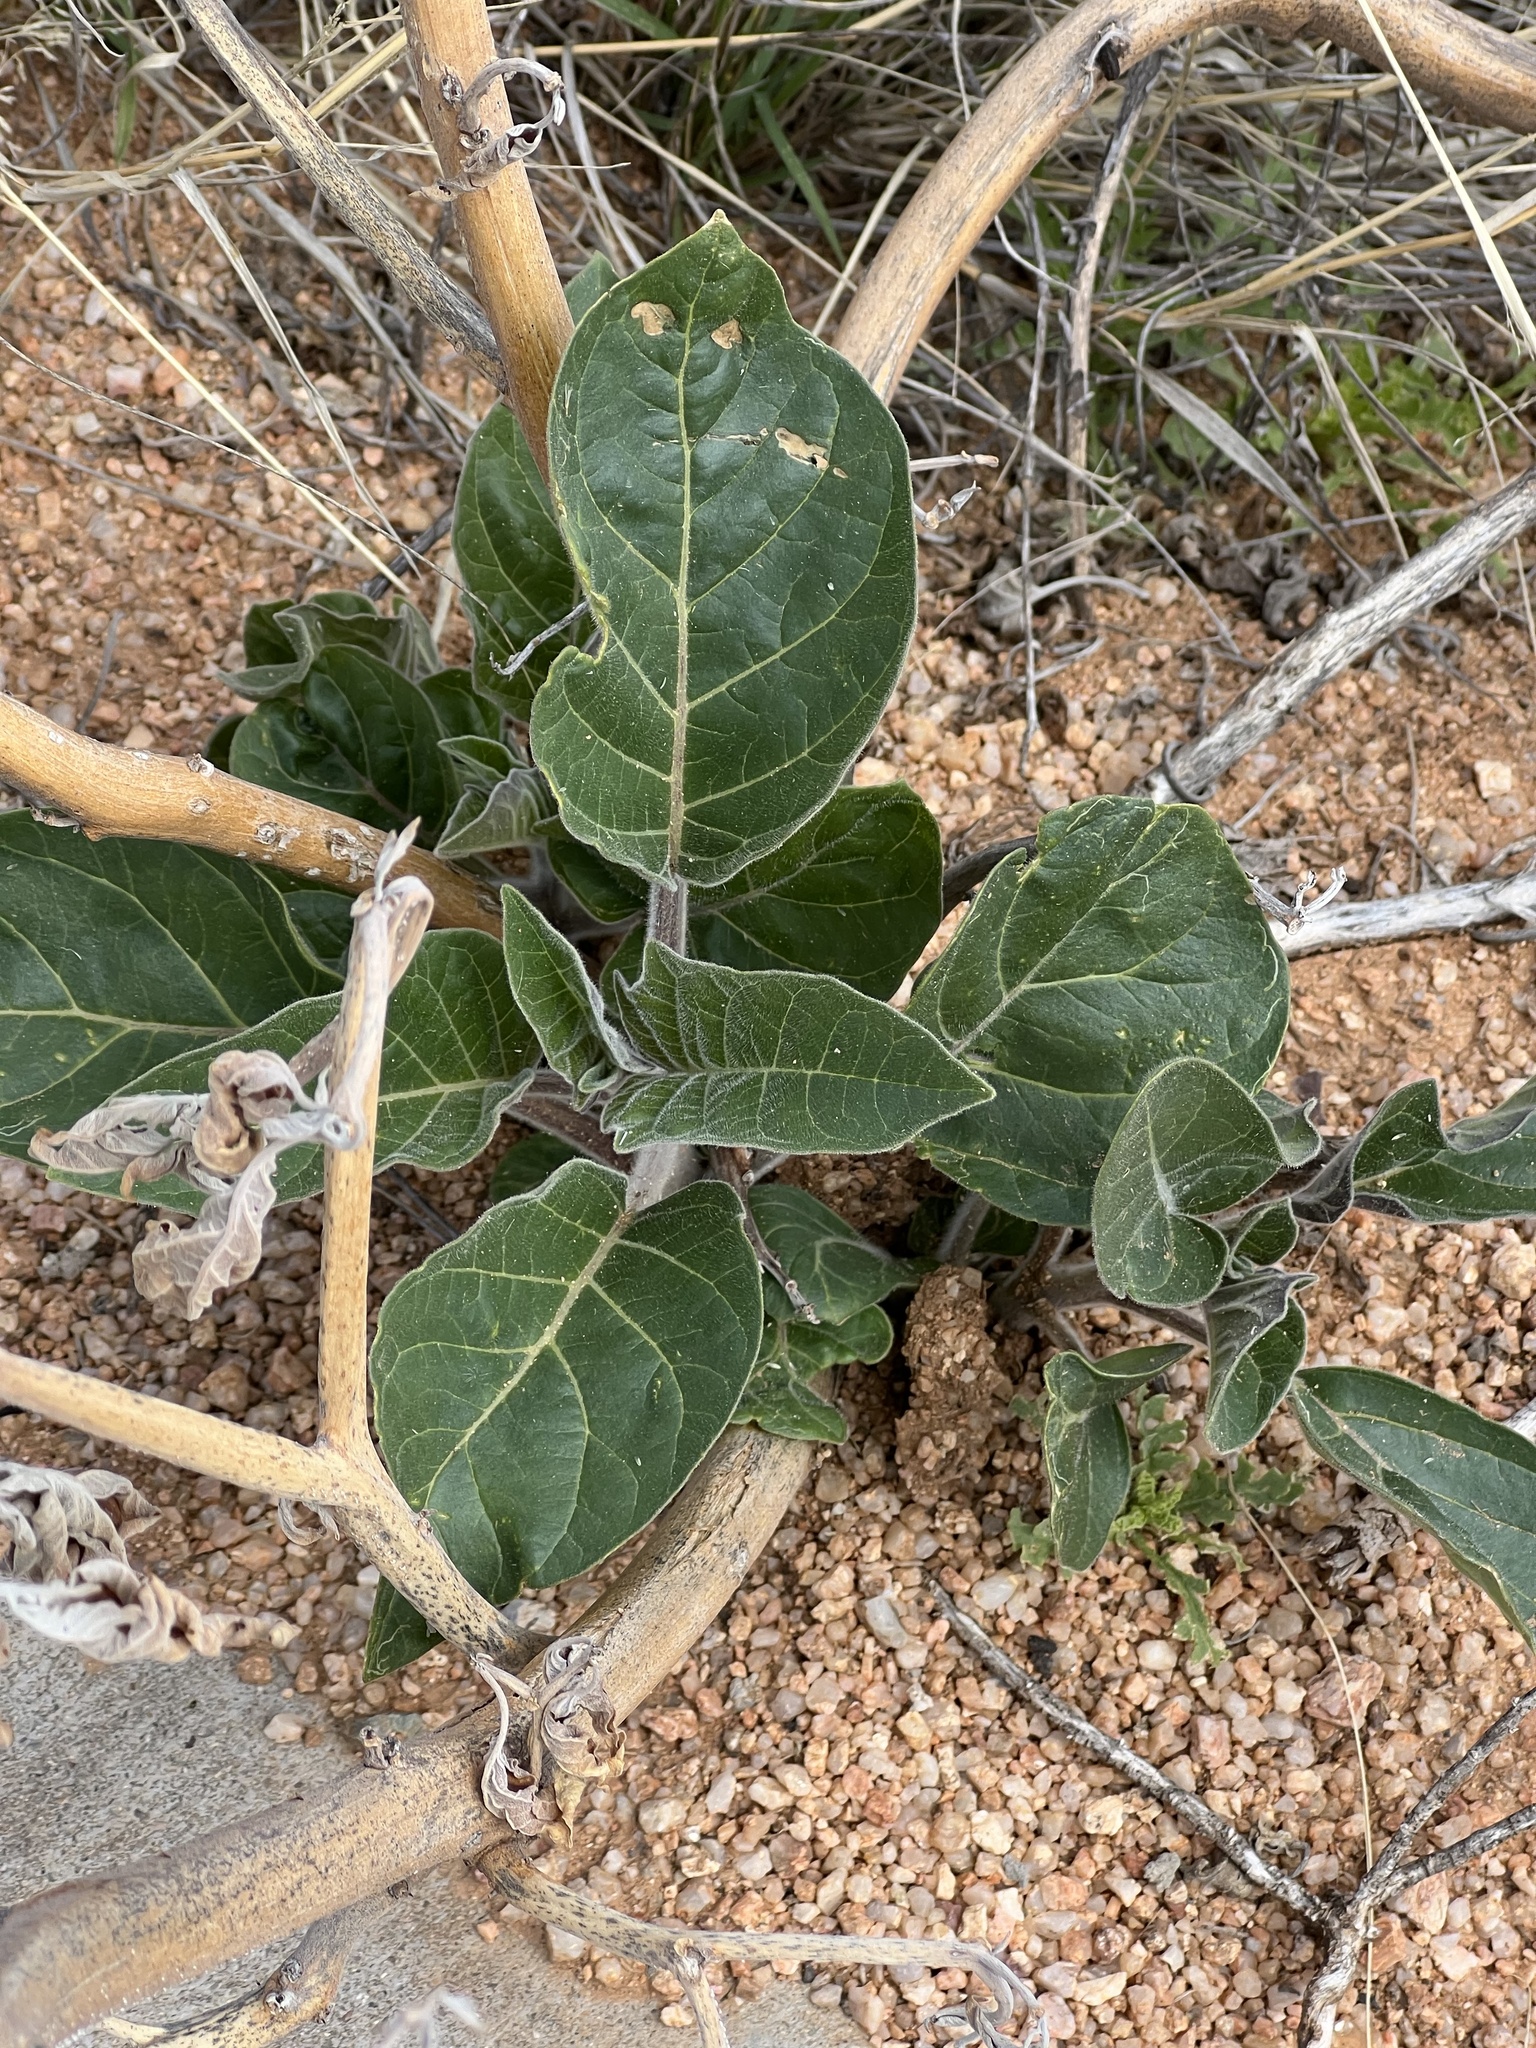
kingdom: Plantae
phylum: Tracheophyta
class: Magnoliopsida
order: Solanales
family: Solanaceae
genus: Datura
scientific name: Datura wrightii
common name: Sacred thorn-apple
